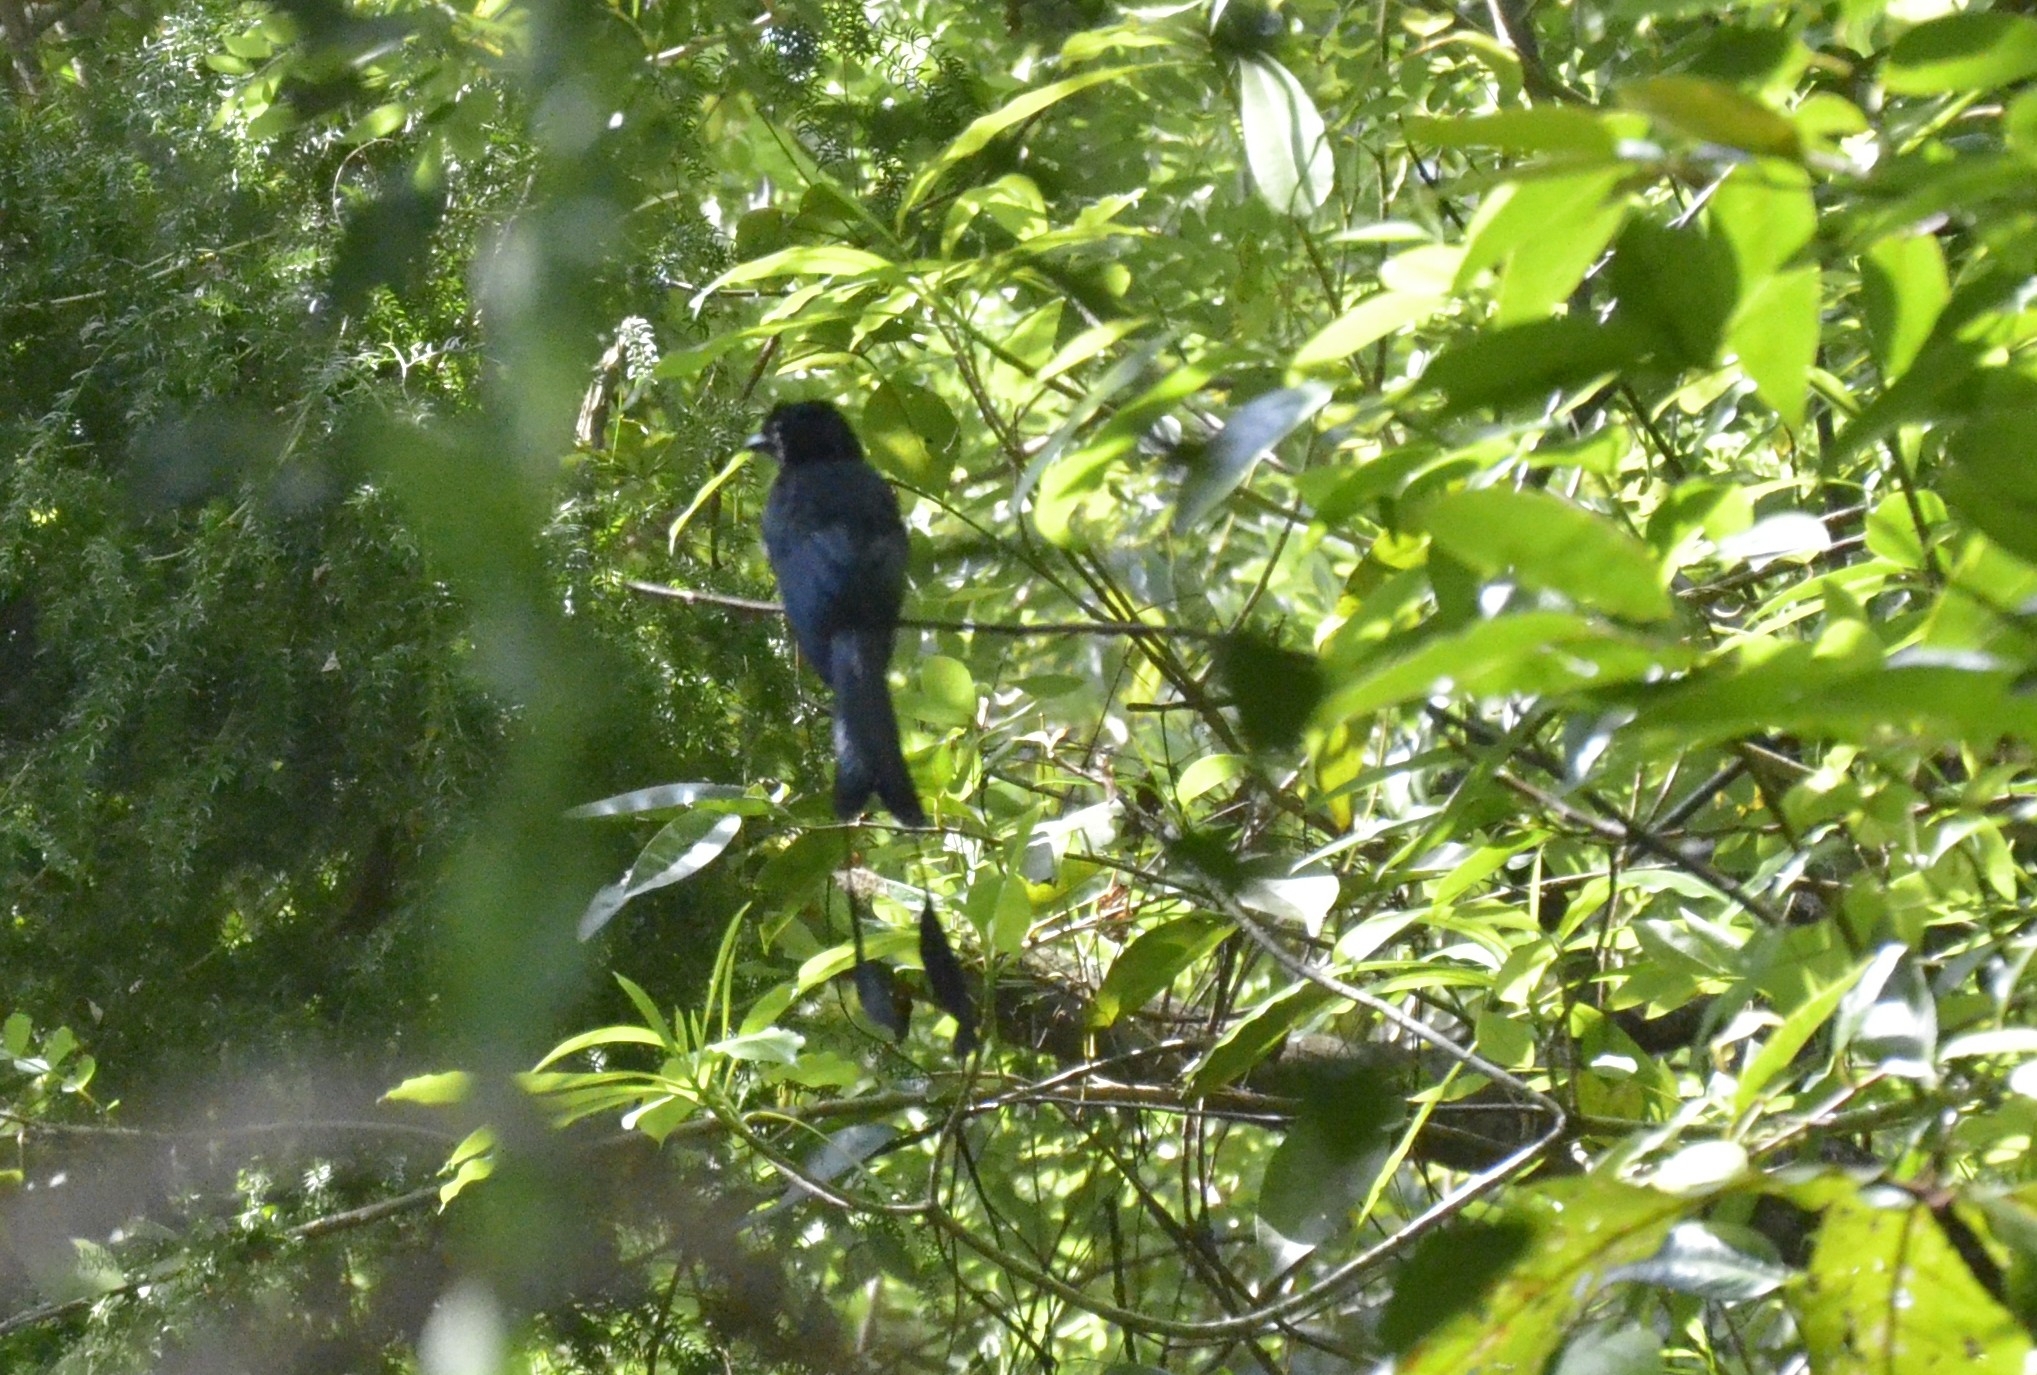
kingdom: Animalia
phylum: Chordata
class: Aves
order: Passeriformes
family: Dicruridae
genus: Dicrurus
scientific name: Dicrurus paradiseus
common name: Greater racket-tailed drongo
